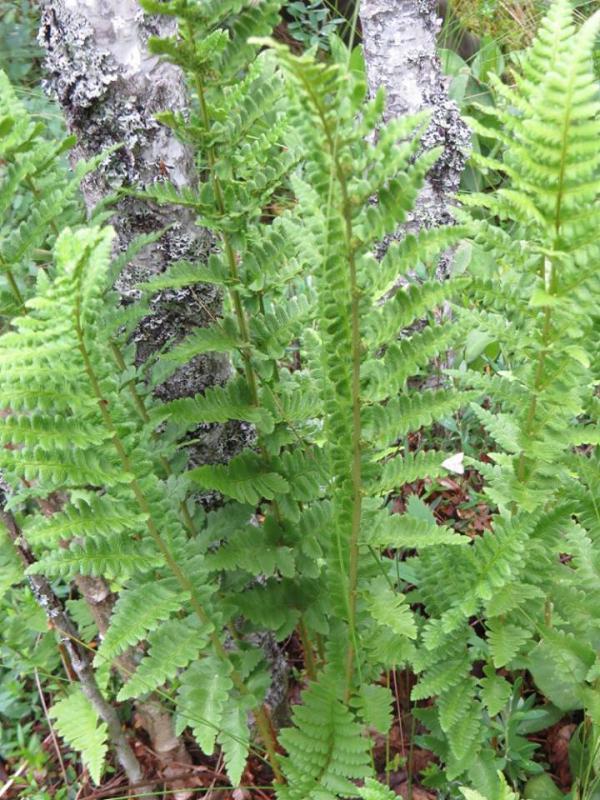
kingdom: Plantae
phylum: Tracheophyta
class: Polypodiopsida
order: Polypodiales
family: Dryopteridaceae
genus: Dryopteris
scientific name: Dryopteris cristata
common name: Crested wood fern
